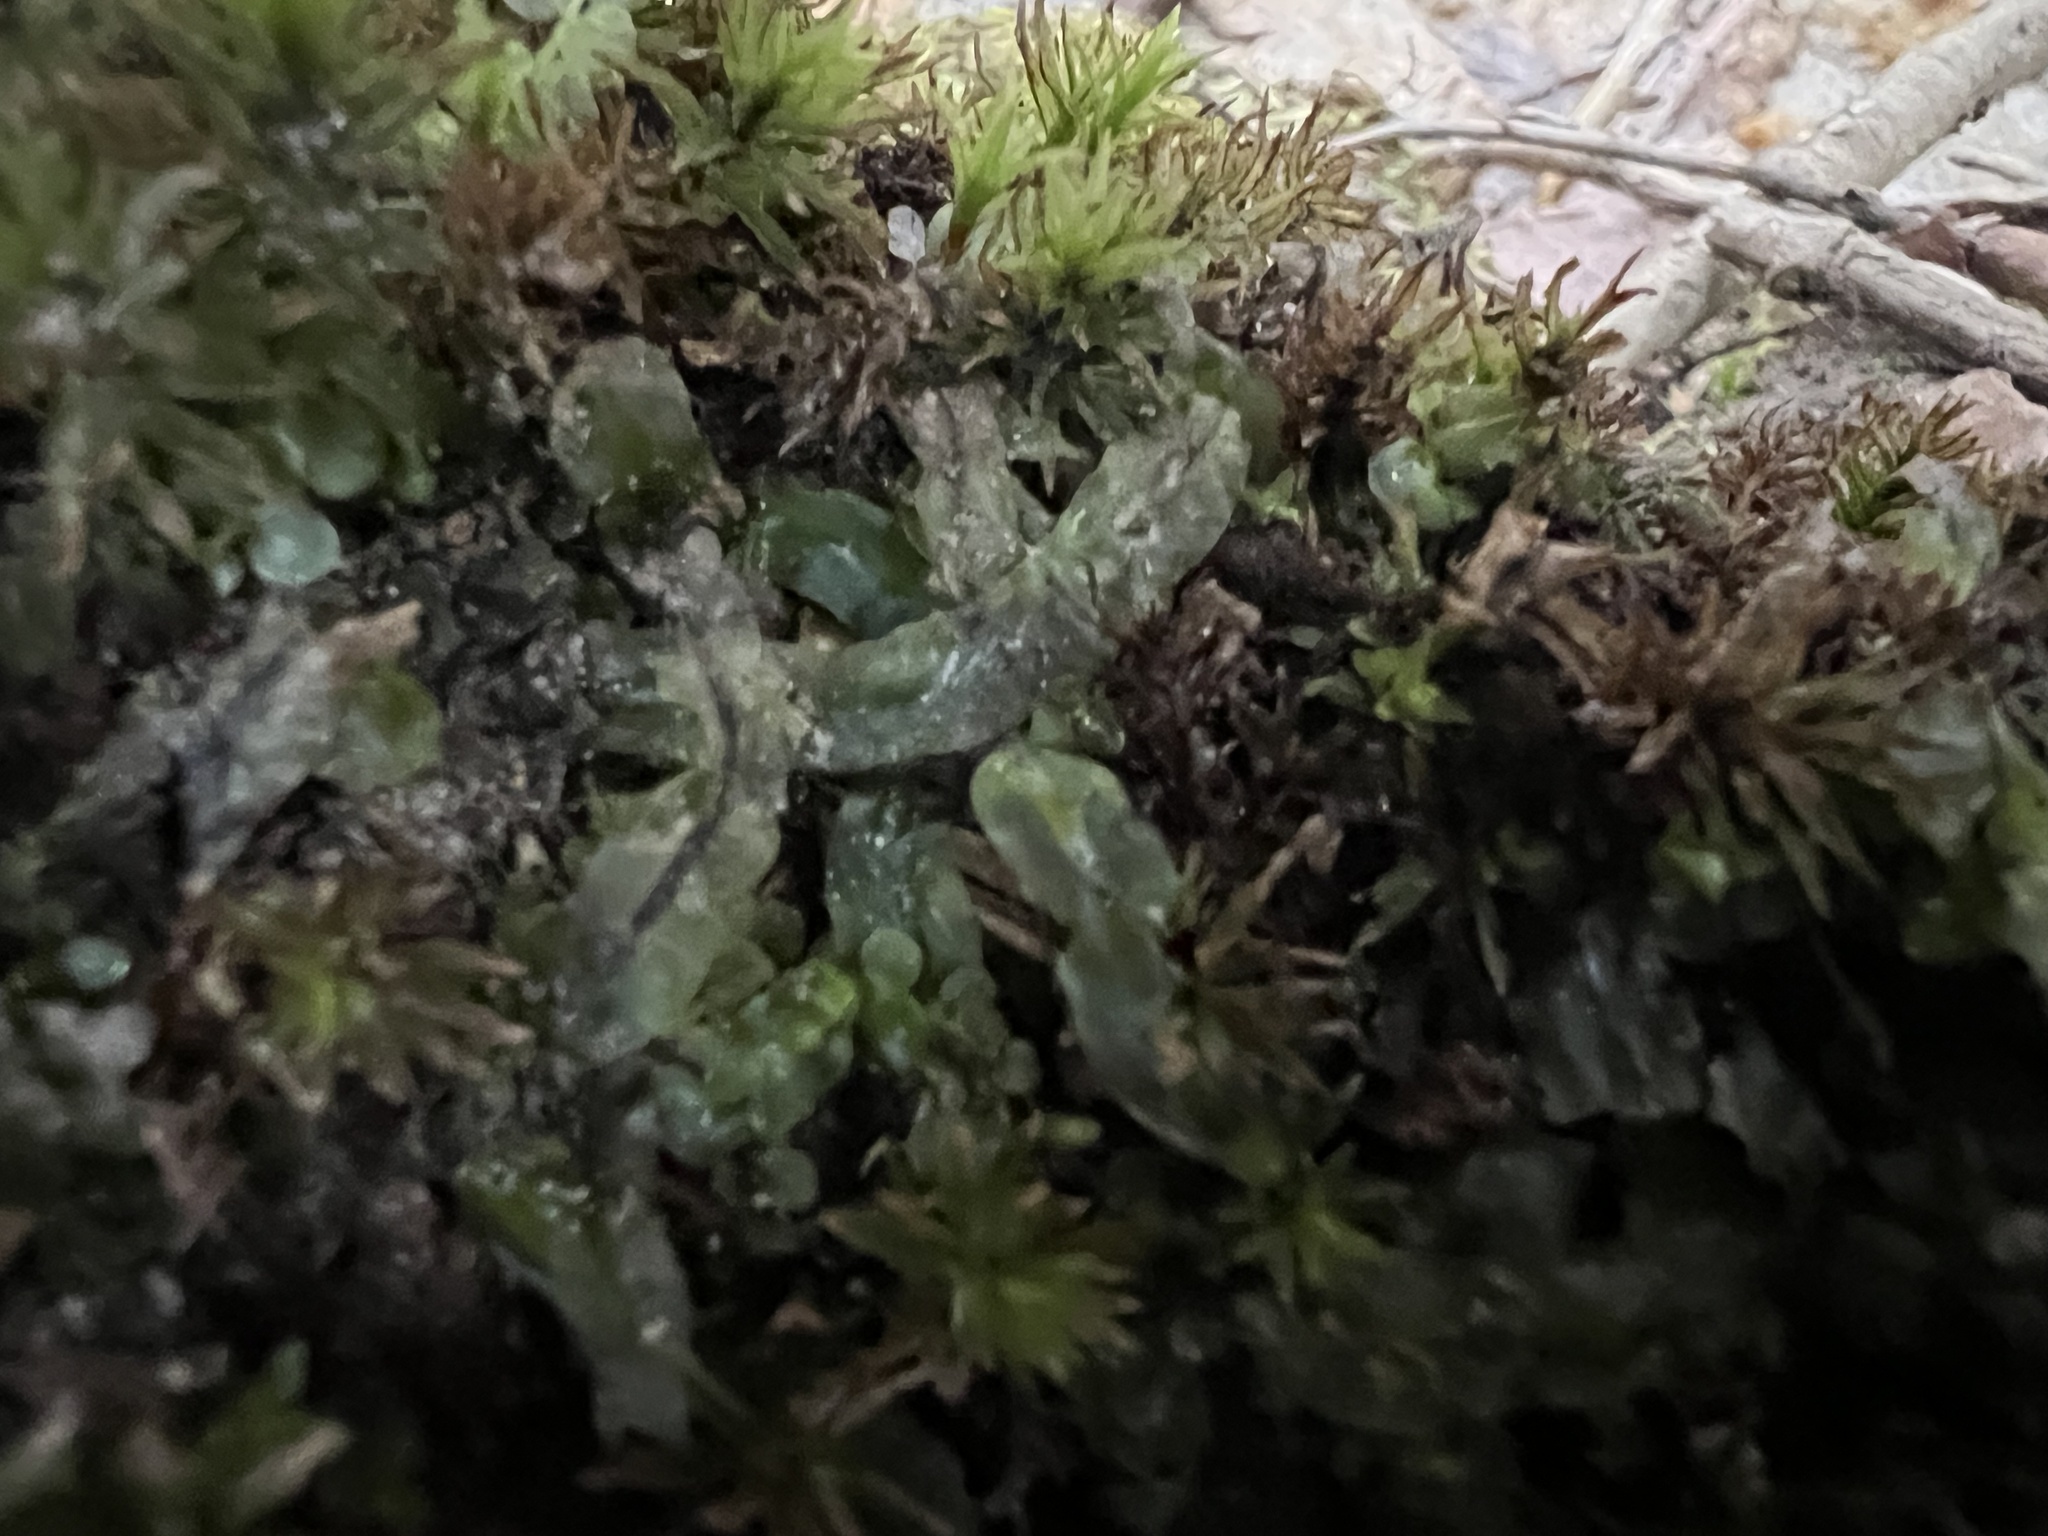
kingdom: Plantae
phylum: Marchantiophyta
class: Jungermanniopsida
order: Pallaviciniales
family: Pallaviciniaceae
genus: Pallavicinia
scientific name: Pallavicinia lyellii
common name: Veilwort
